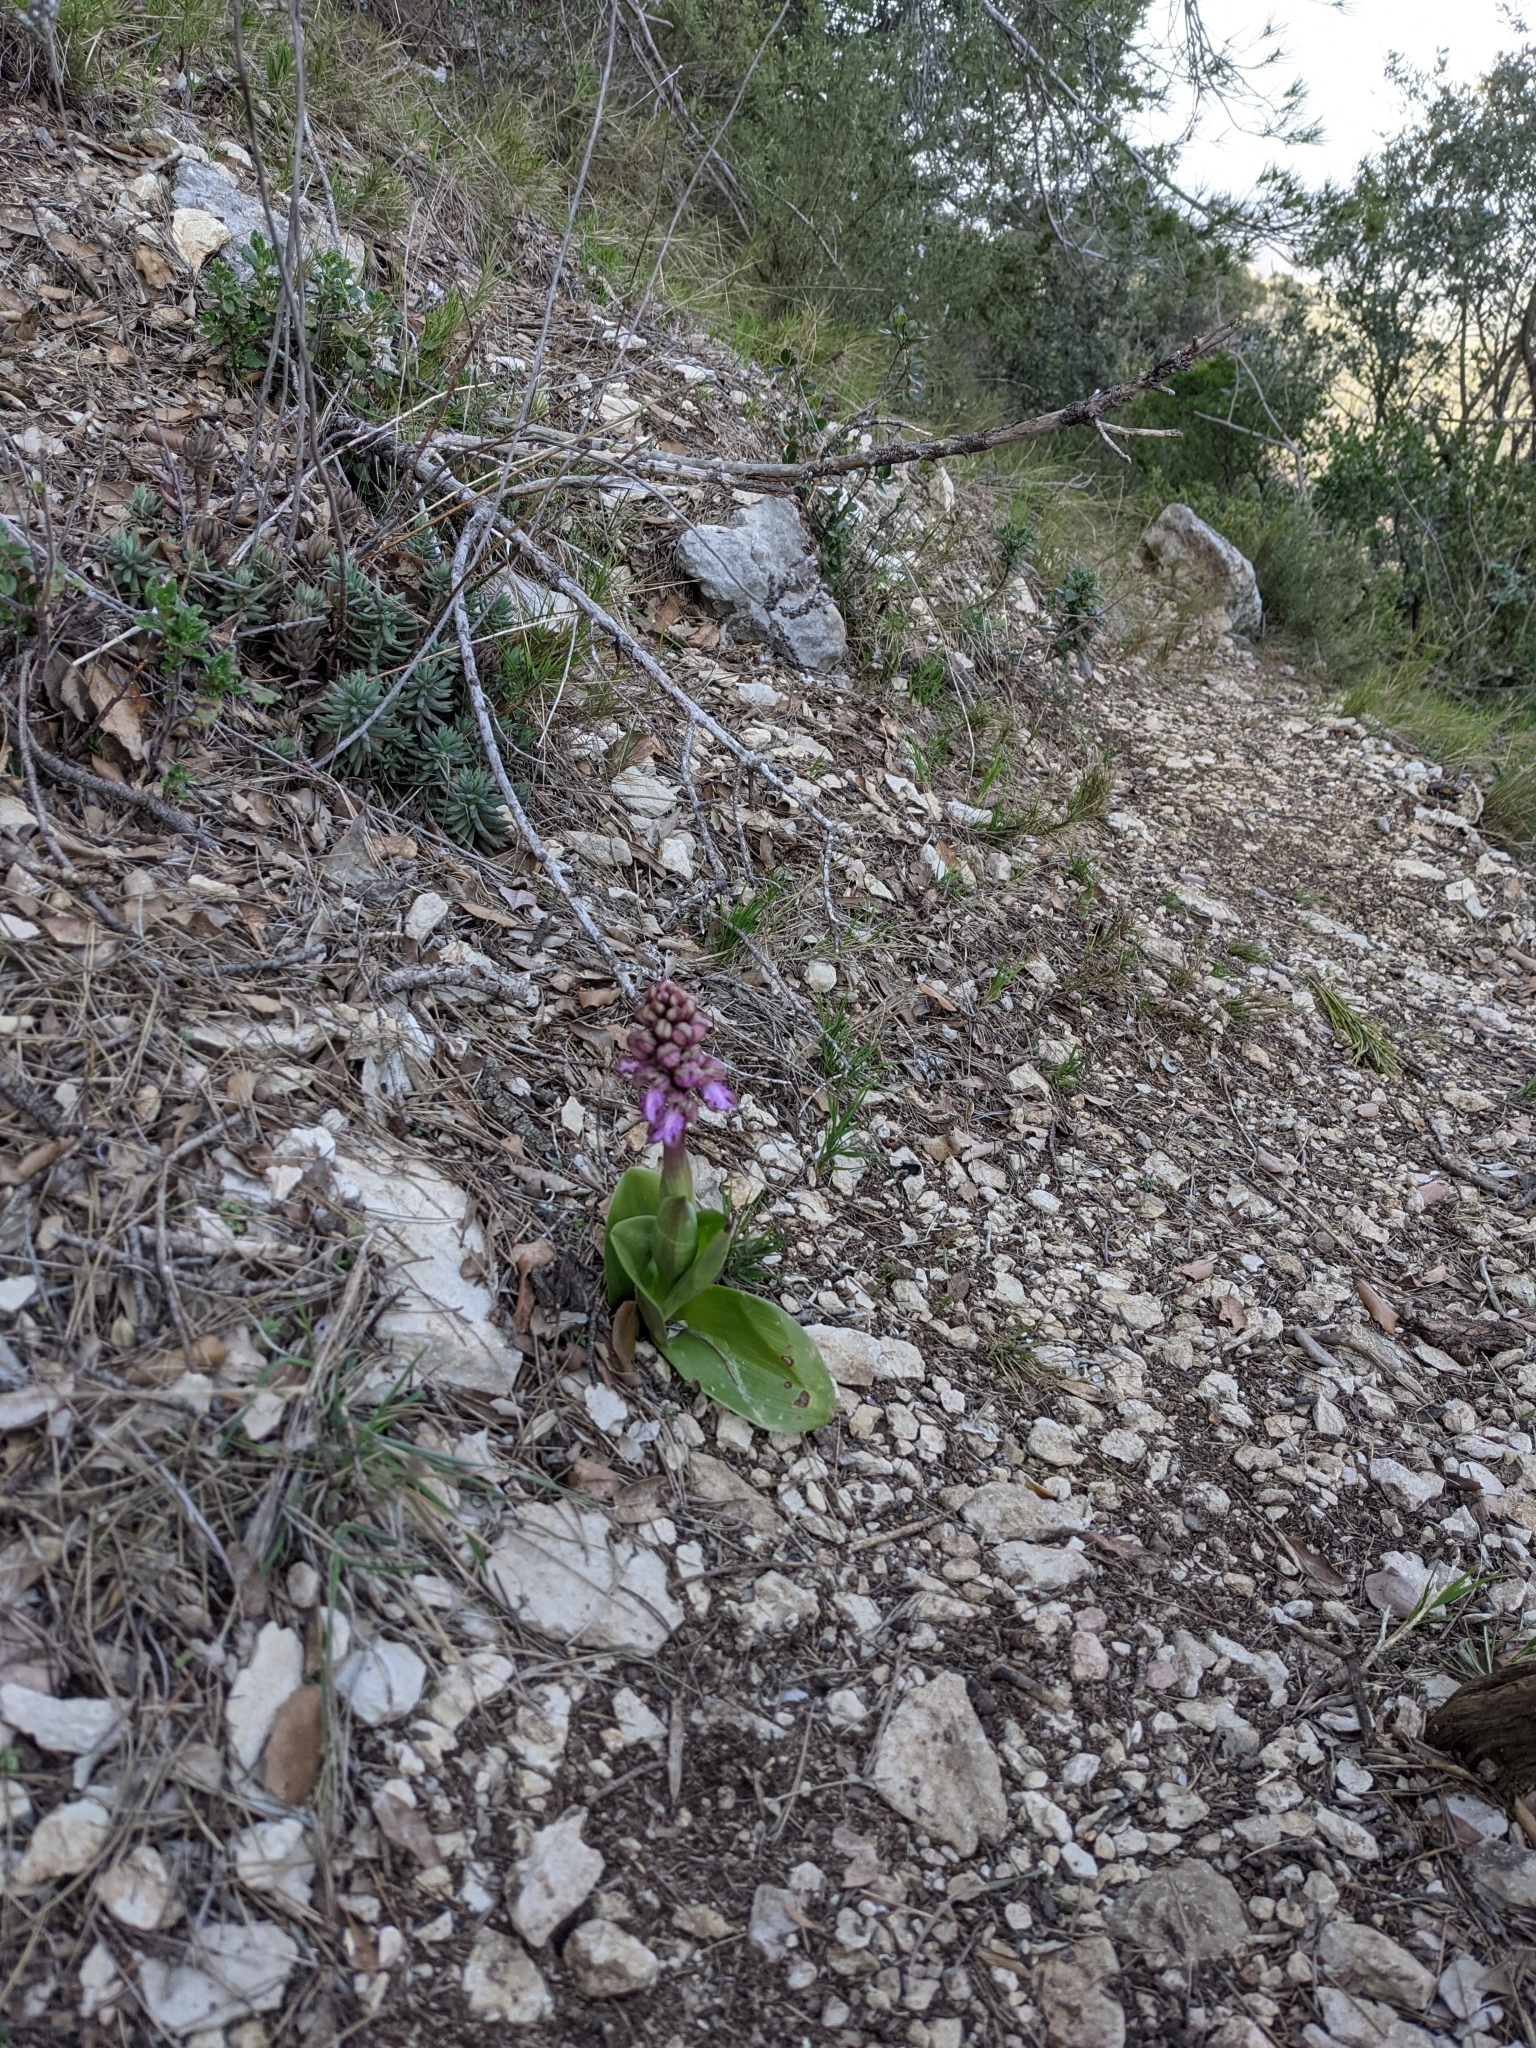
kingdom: Plantae
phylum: Tracheophyta
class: Liliopsida
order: Asparagales
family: Orchidaceae
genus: Himantoglossum
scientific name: Himantoglossum robertianum
